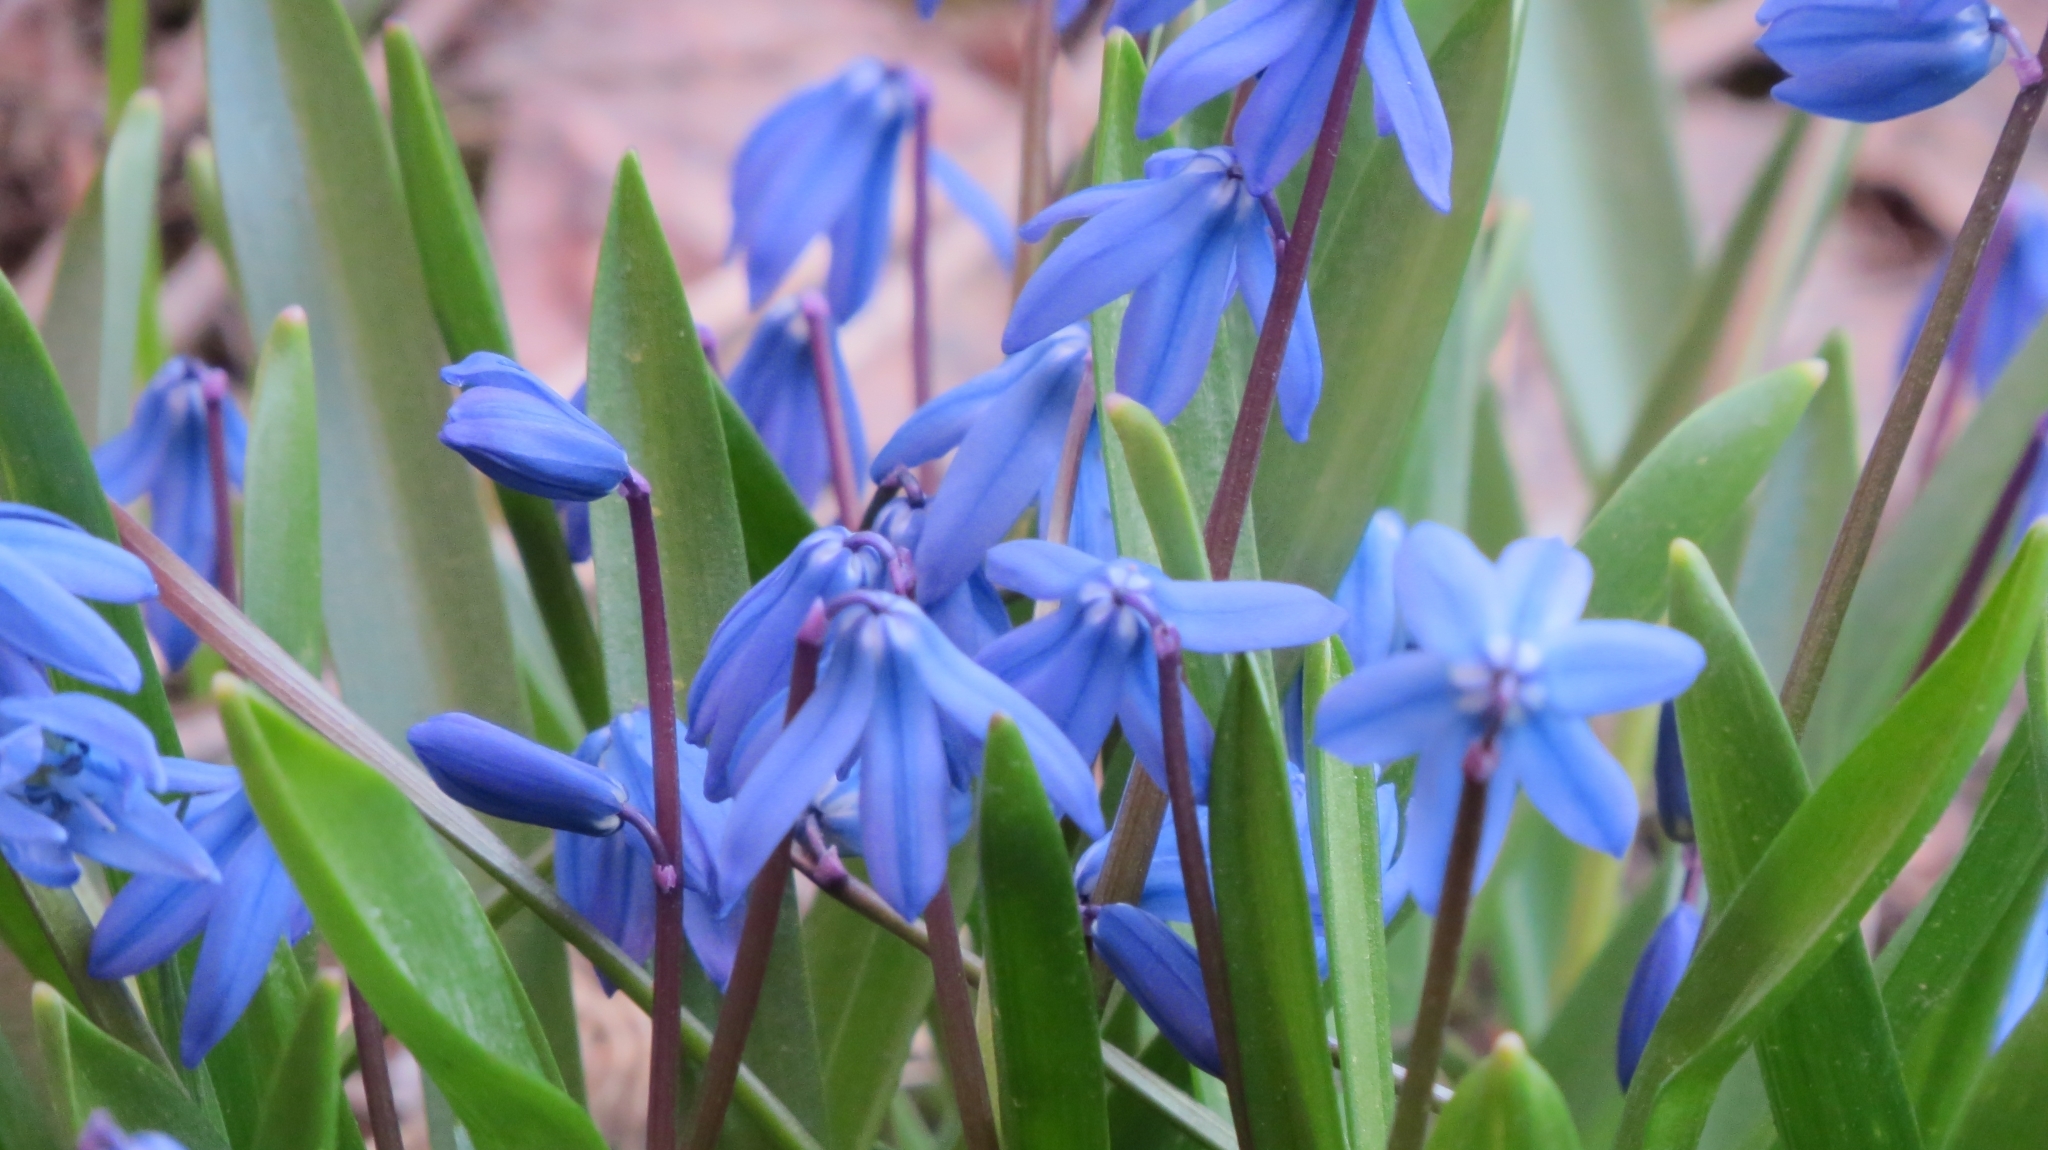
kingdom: Plantae
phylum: Tracheophyta
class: Liliopsida
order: Asparagales
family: Asparagaceae
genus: Scilla
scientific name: Scilla siberica
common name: Siberian squill
